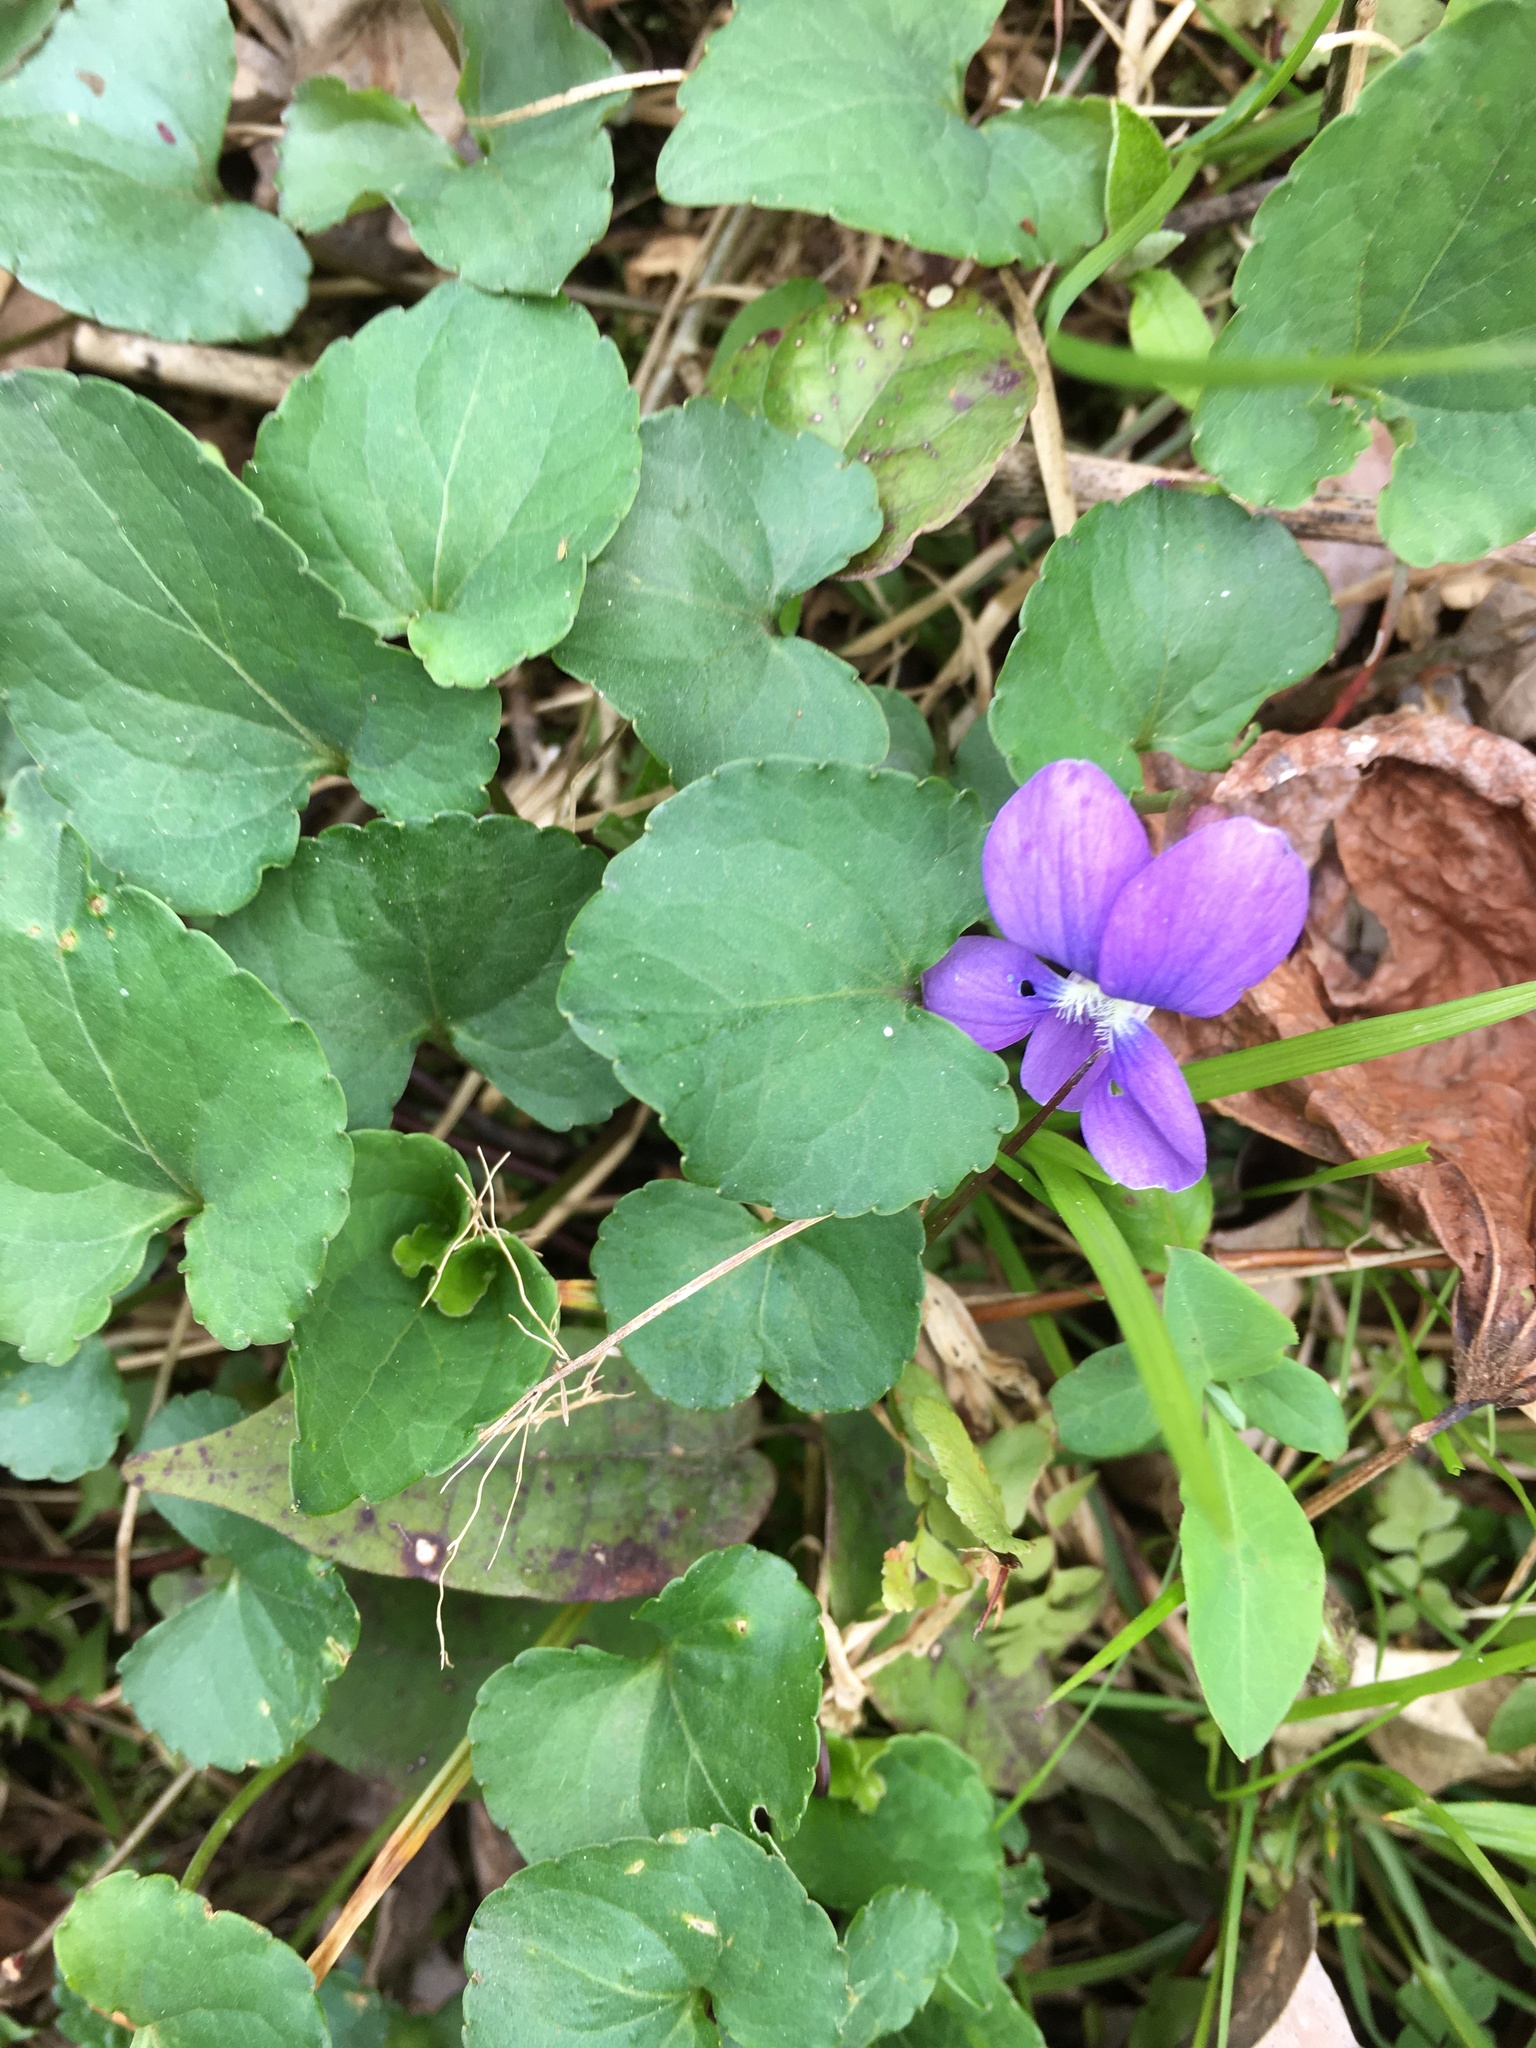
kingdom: Plantae
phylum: Tracheophyta
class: Magnoliopsida
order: Malpighiales
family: Violaceae
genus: Viola
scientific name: Viola sororia
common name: Dooryard violet
